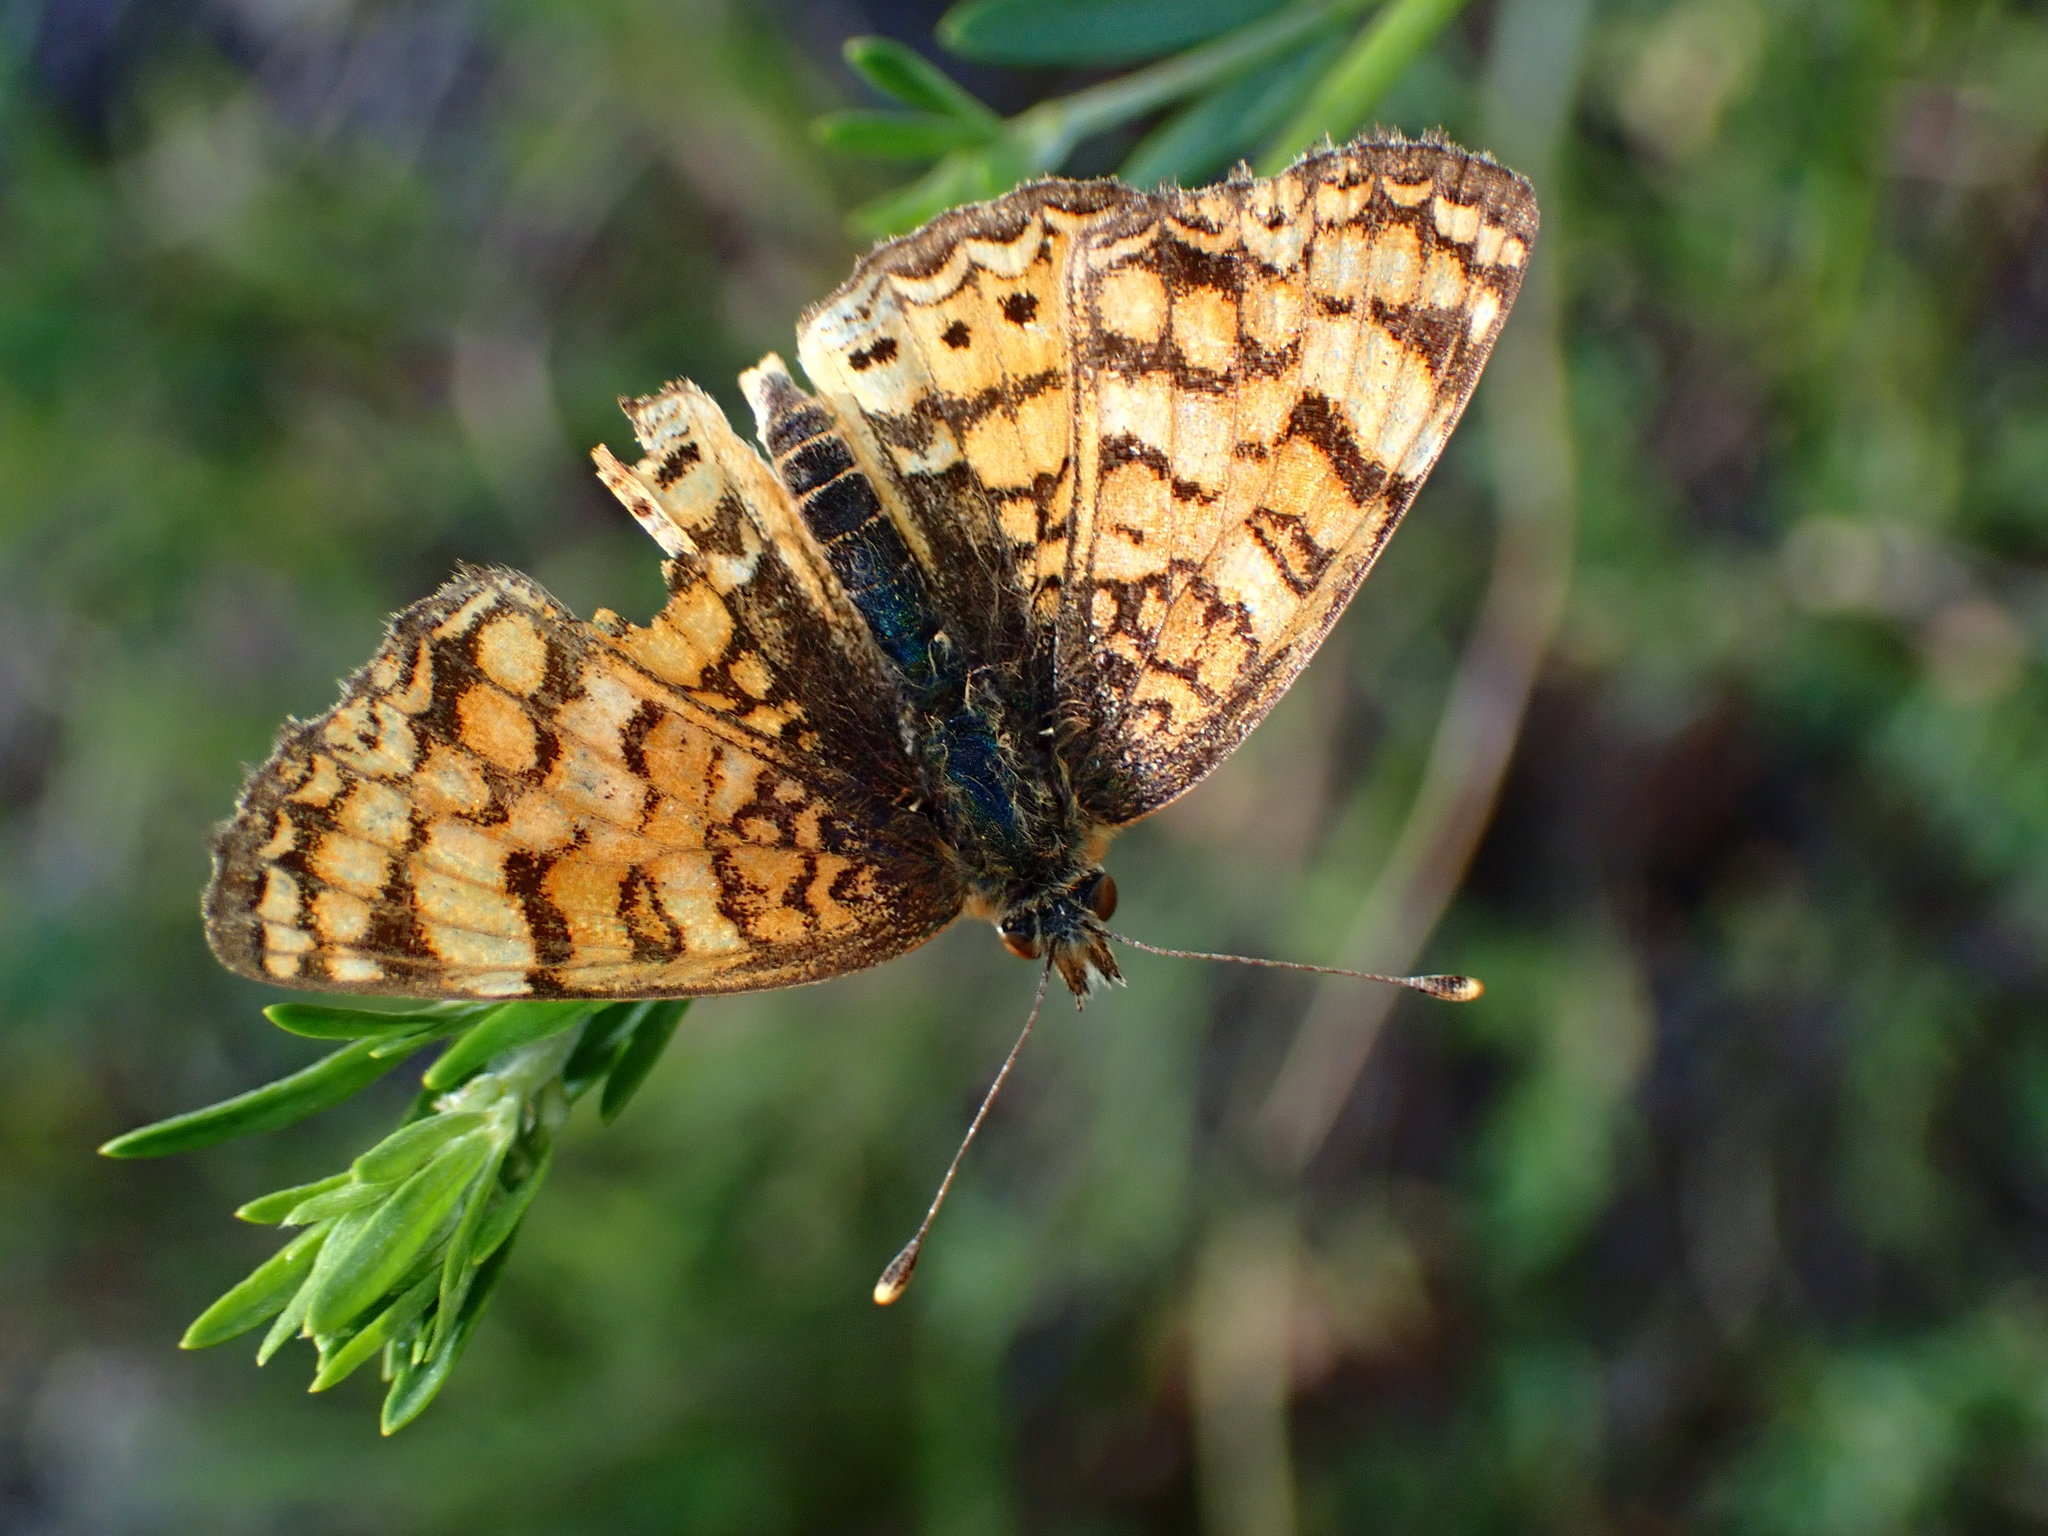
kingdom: Animalia
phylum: Arthropoda
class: Insecta
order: Lepidoptera
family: Nymphalidae
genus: Eresia
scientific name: Eresia aveyrona
